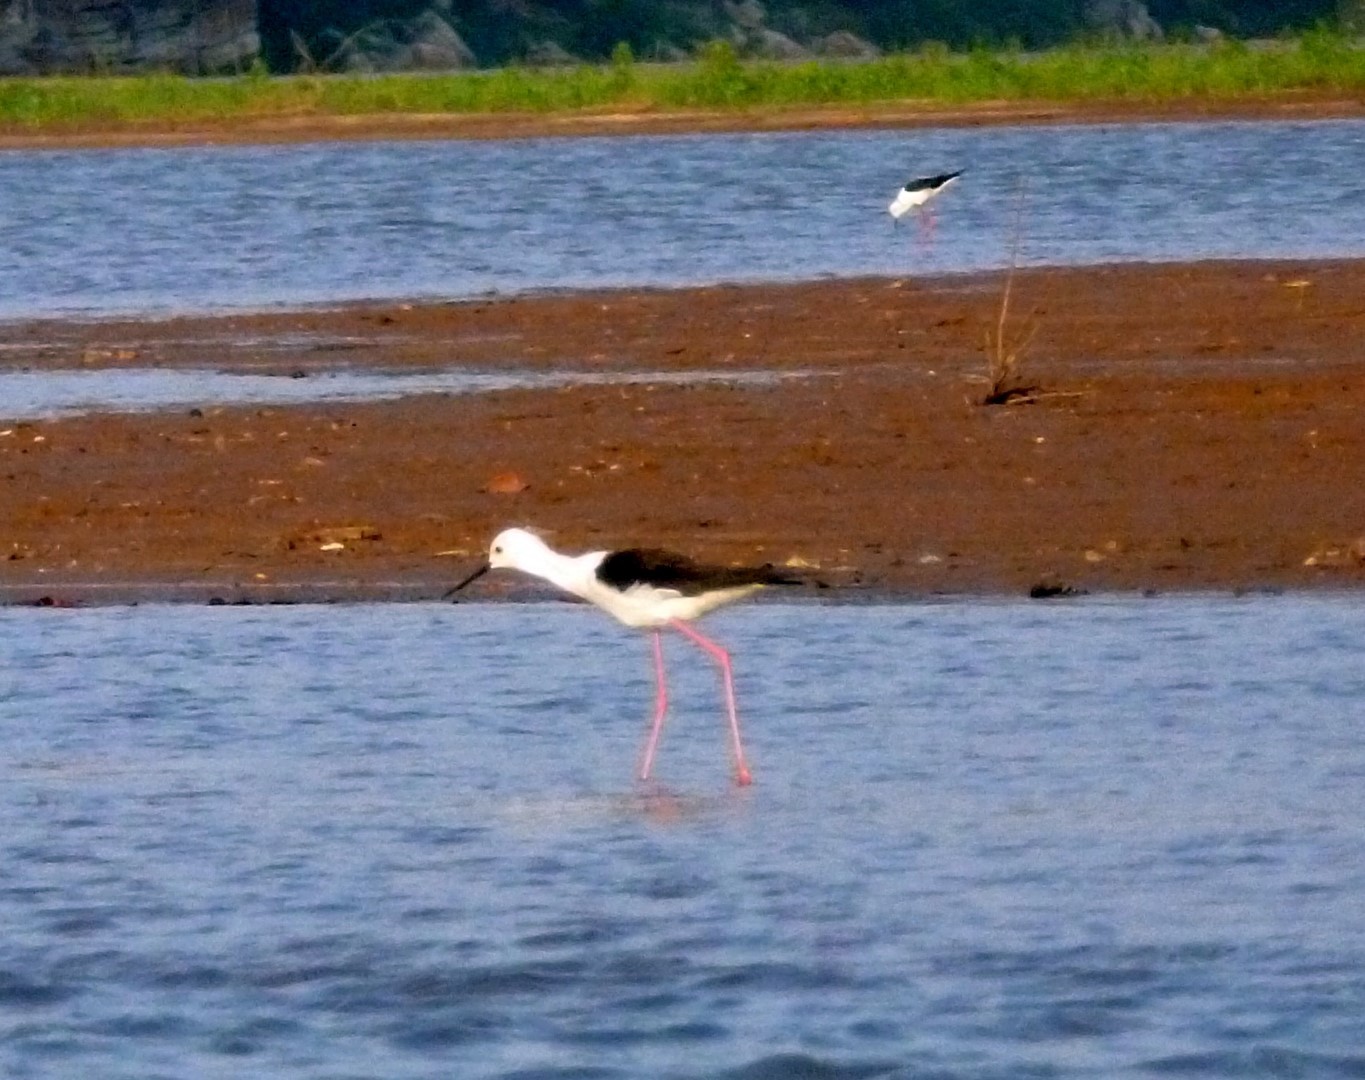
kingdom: Animalia
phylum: Chordata
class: Aves
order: Charadriiformes
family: Recurvirostridae
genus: Himantopus
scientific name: Himantopus himantopus
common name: Black-winged stilt
